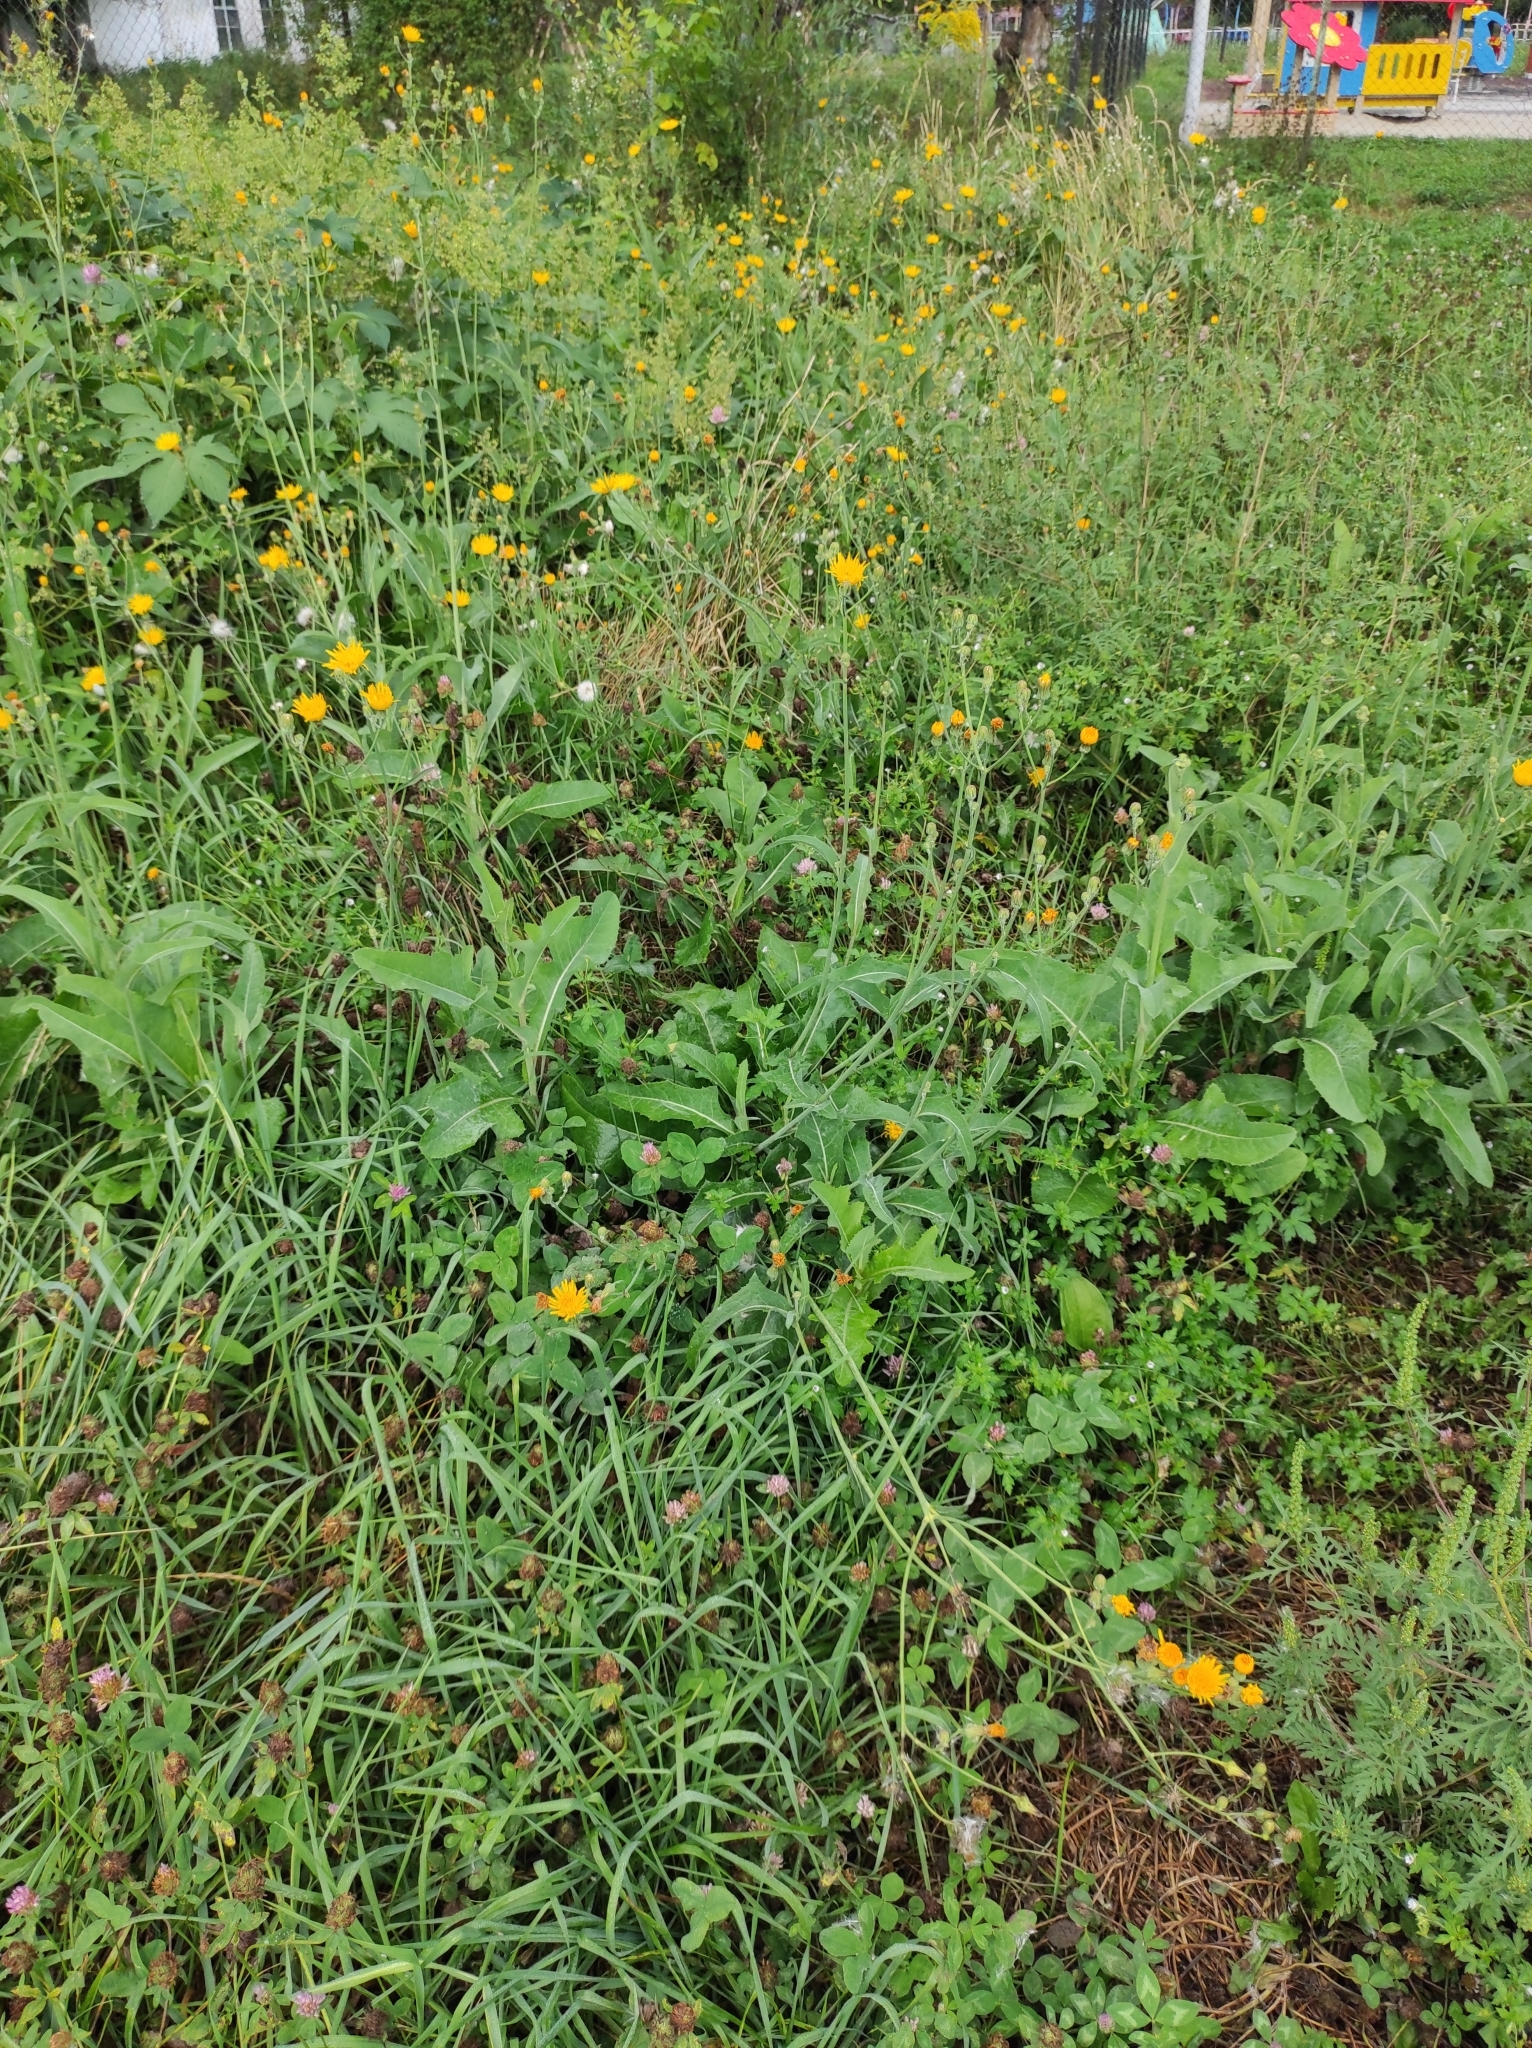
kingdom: Plantae
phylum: Tracheophyta
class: Magnoliopsida
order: Asterales
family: Asteraceae
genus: Sonchus
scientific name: Sonchus arvensis
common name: Perennial sow-thistle
